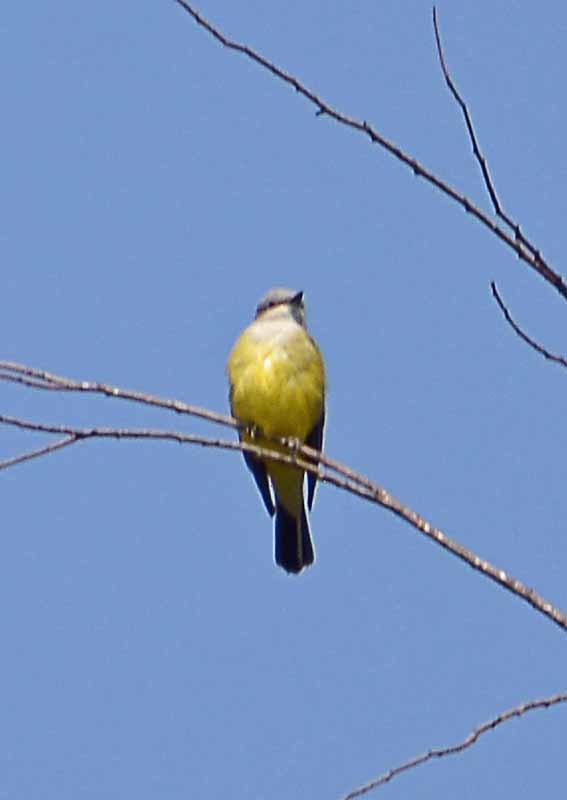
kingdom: Animalia
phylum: Chordata
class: Aves
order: Passeriformes
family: Tyrannidae
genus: Tyrannus
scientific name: Tyrannus verticalis
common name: Western kingbird
